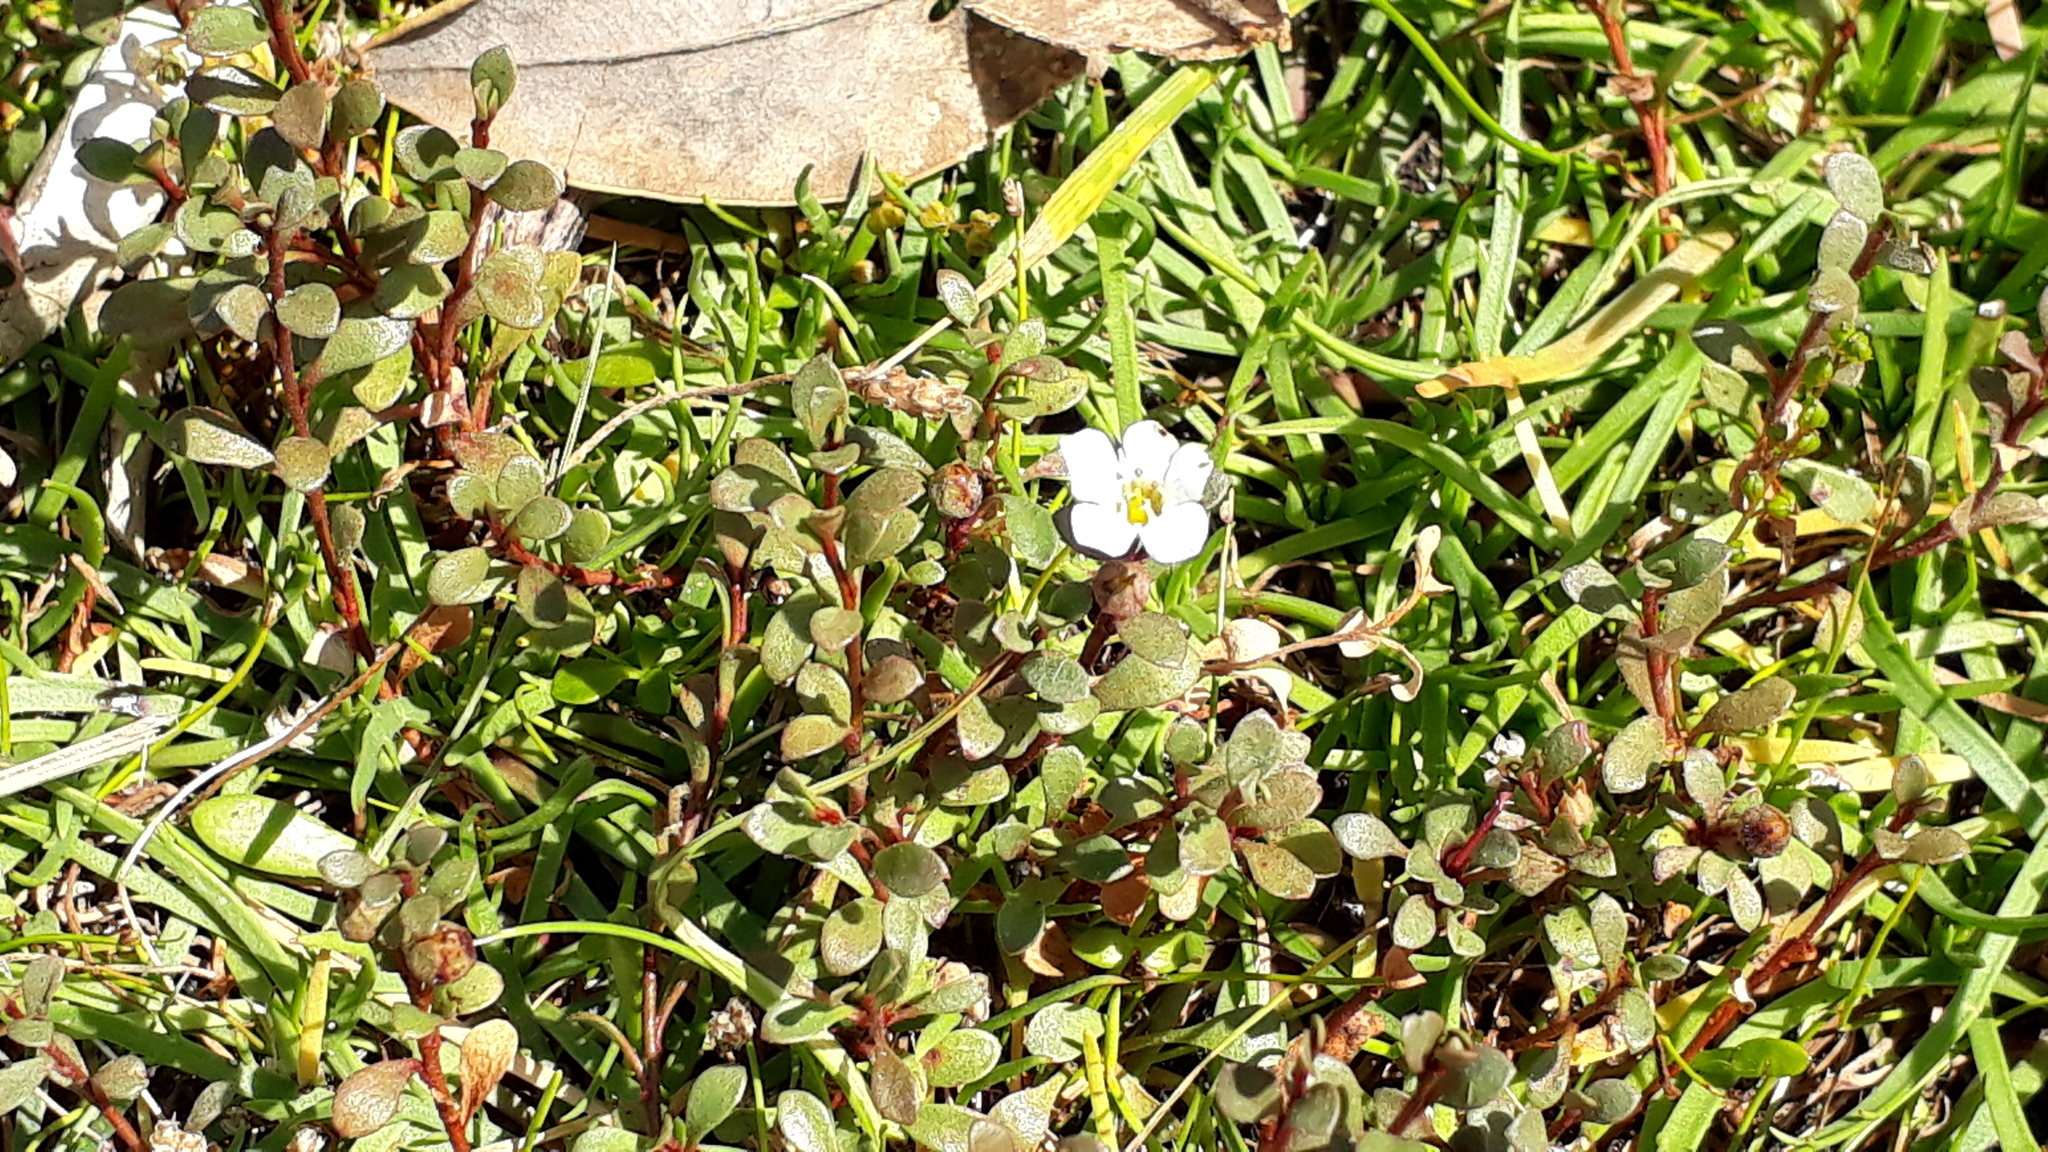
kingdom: Plantae
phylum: Tracheophyta
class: Magnoliopsida
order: Ericales
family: Primulaceae
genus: Samolus
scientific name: Samolus repens
